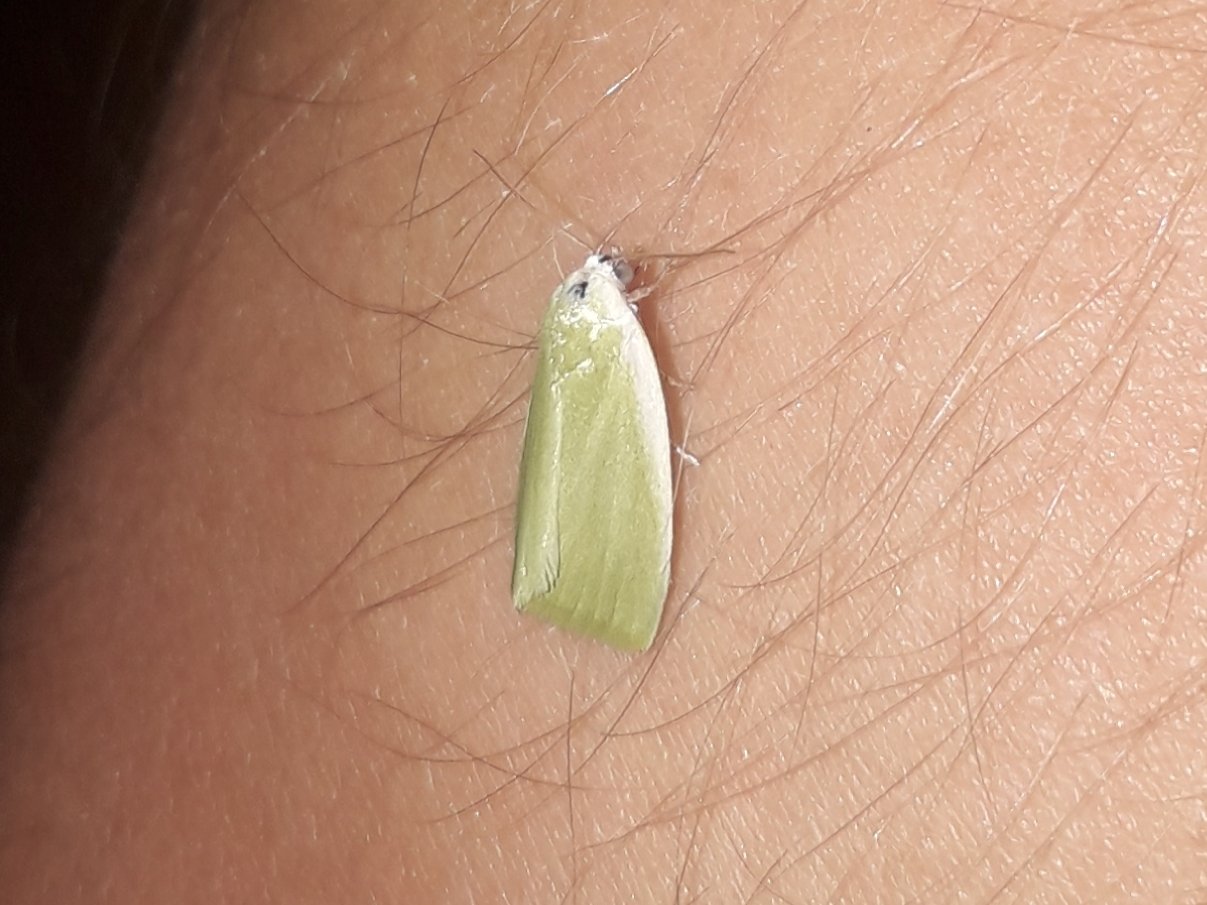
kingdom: Animalia
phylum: Arthropoda
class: Insecta
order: Lepidoptera
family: Nolidae
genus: Earias
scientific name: Earias clorana
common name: Cream-bordered green pea
